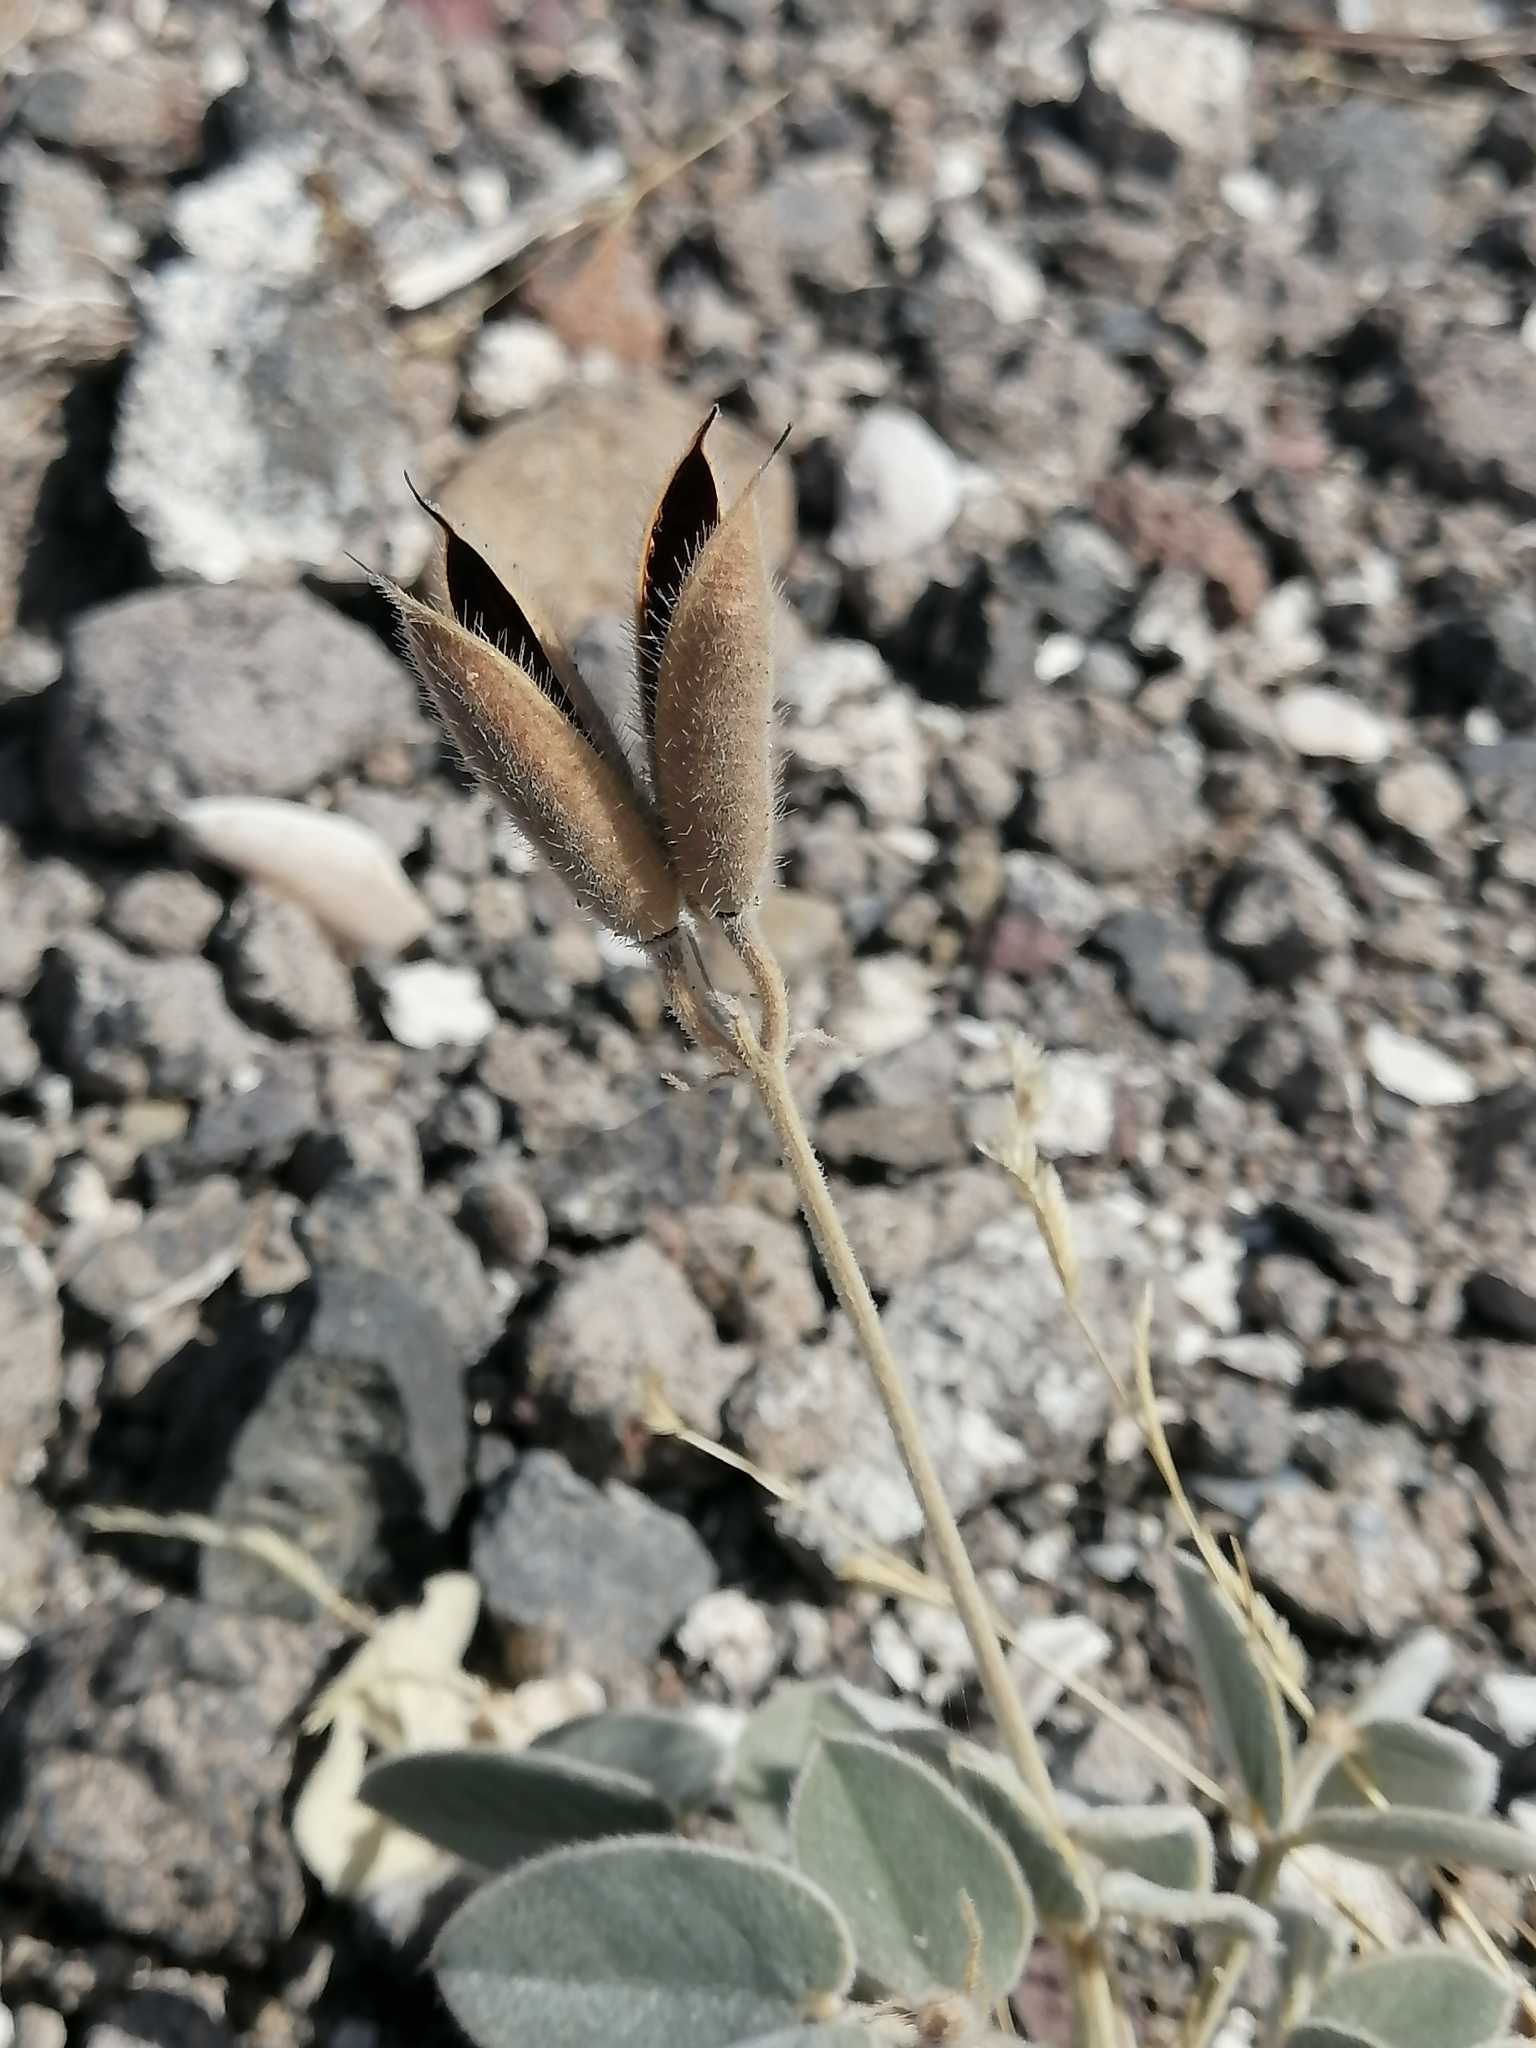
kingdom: Plantae
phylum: Tracheophyta
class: Magnoliopsida
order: Fabales
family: Fabaceae
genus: Senna
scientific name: Senna confinis
